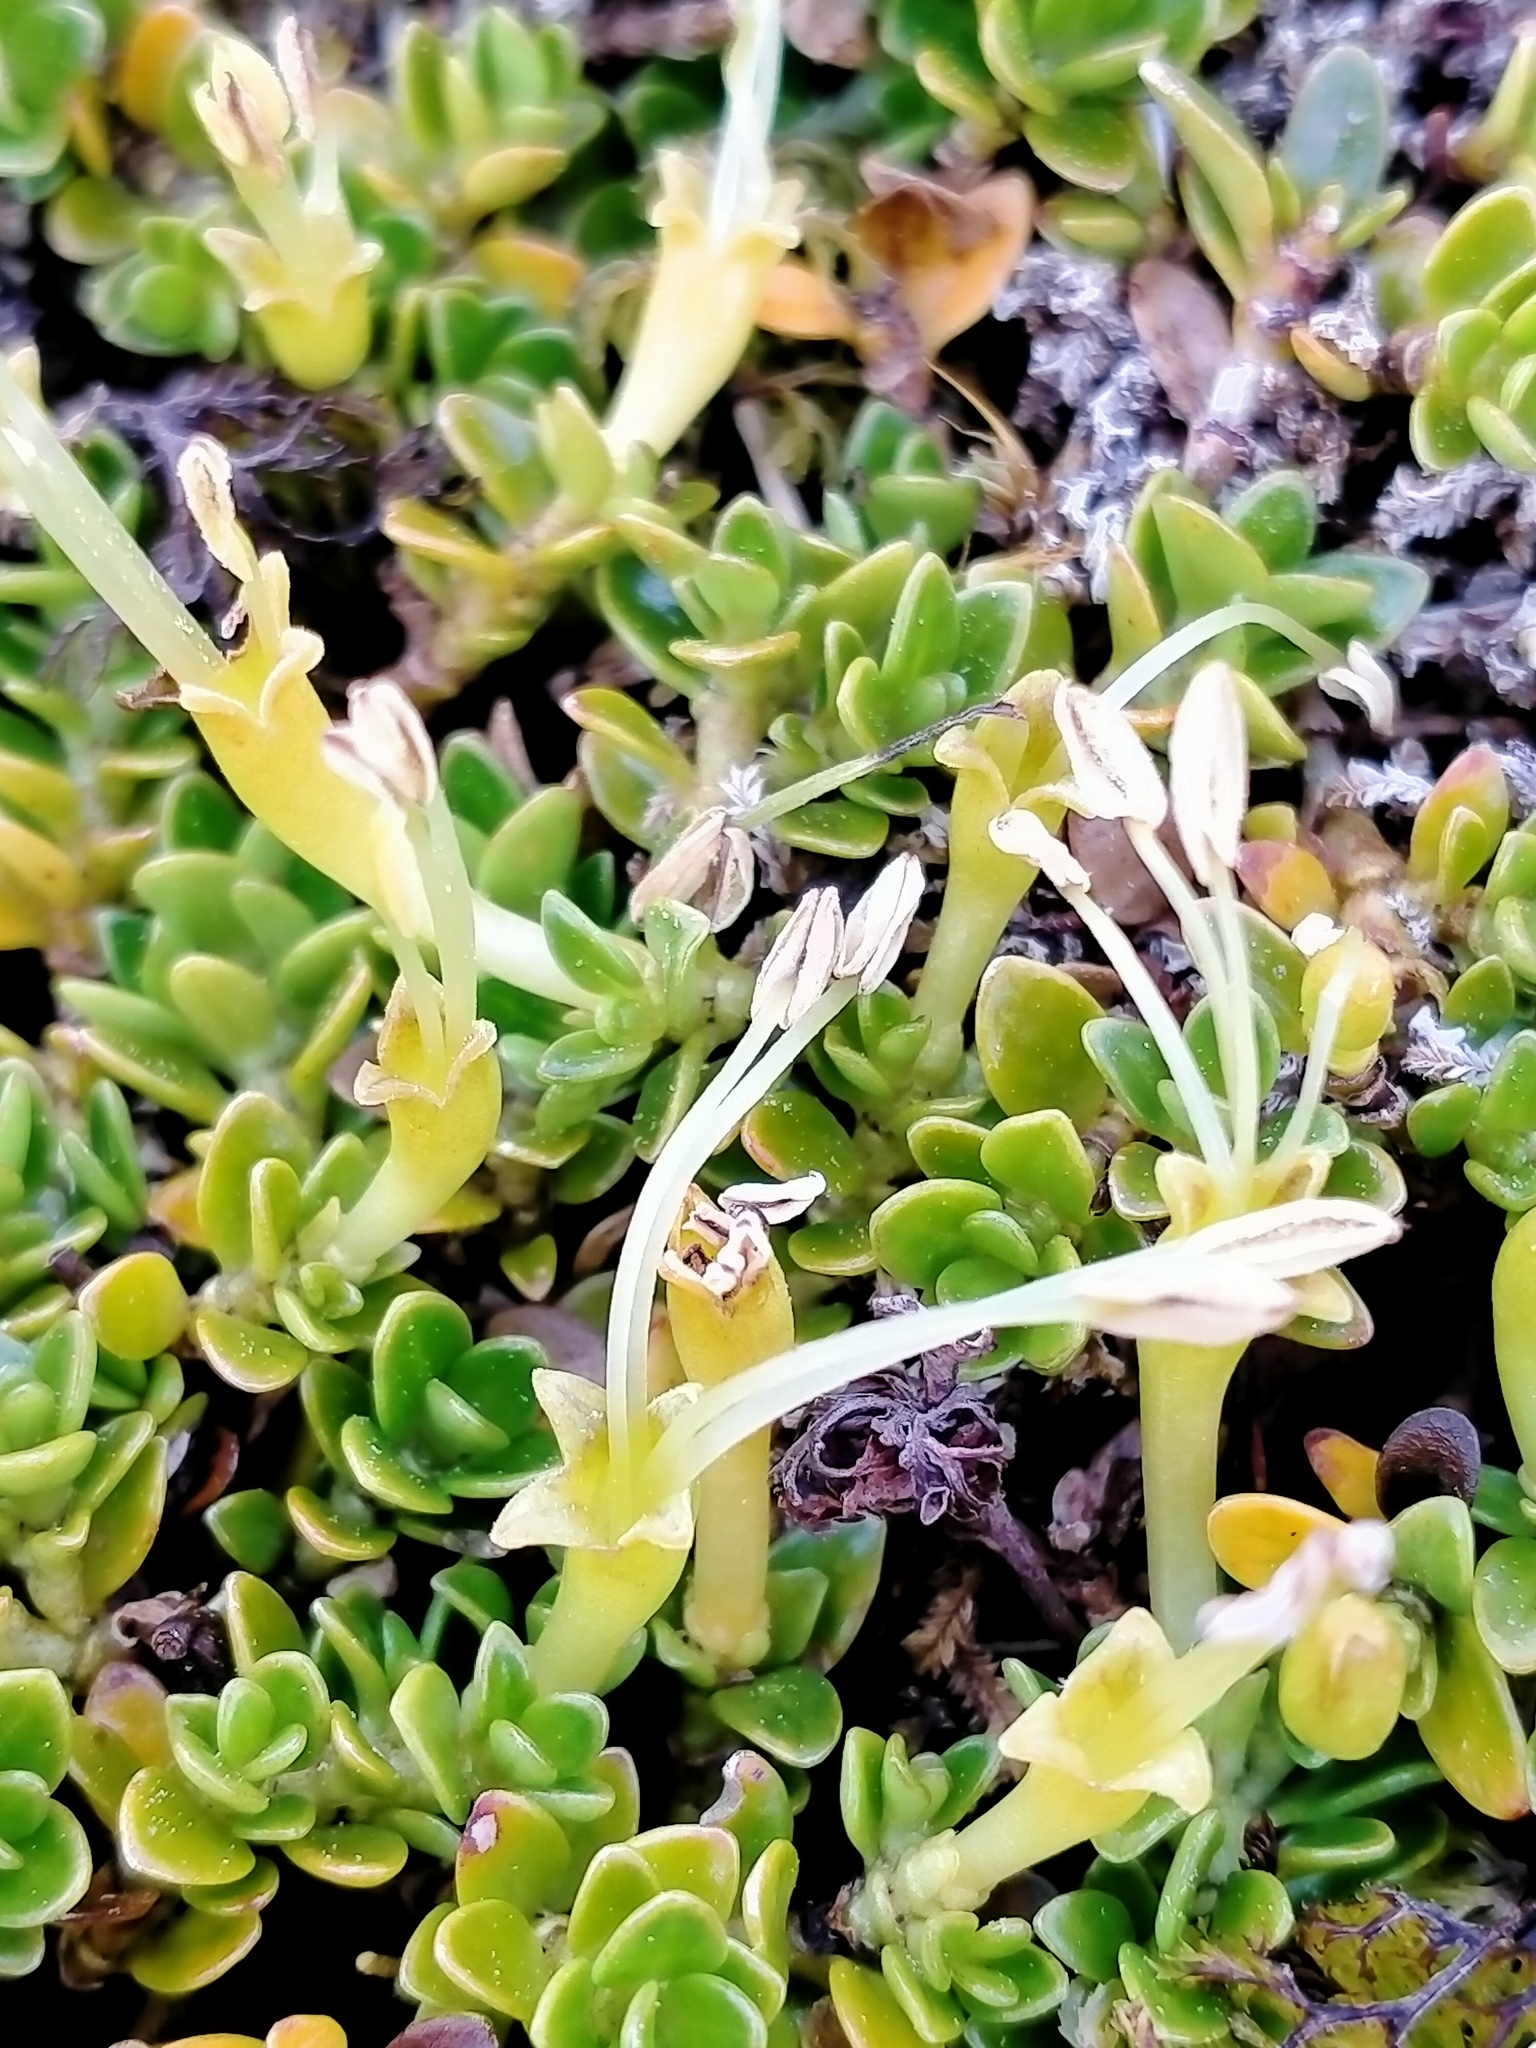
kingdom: Plantae
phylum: Tracheophyta
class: Magnoliopsida
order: Gentianales
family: Rubiaceae
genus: Coprosma
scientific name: Coprosma perpusilla
